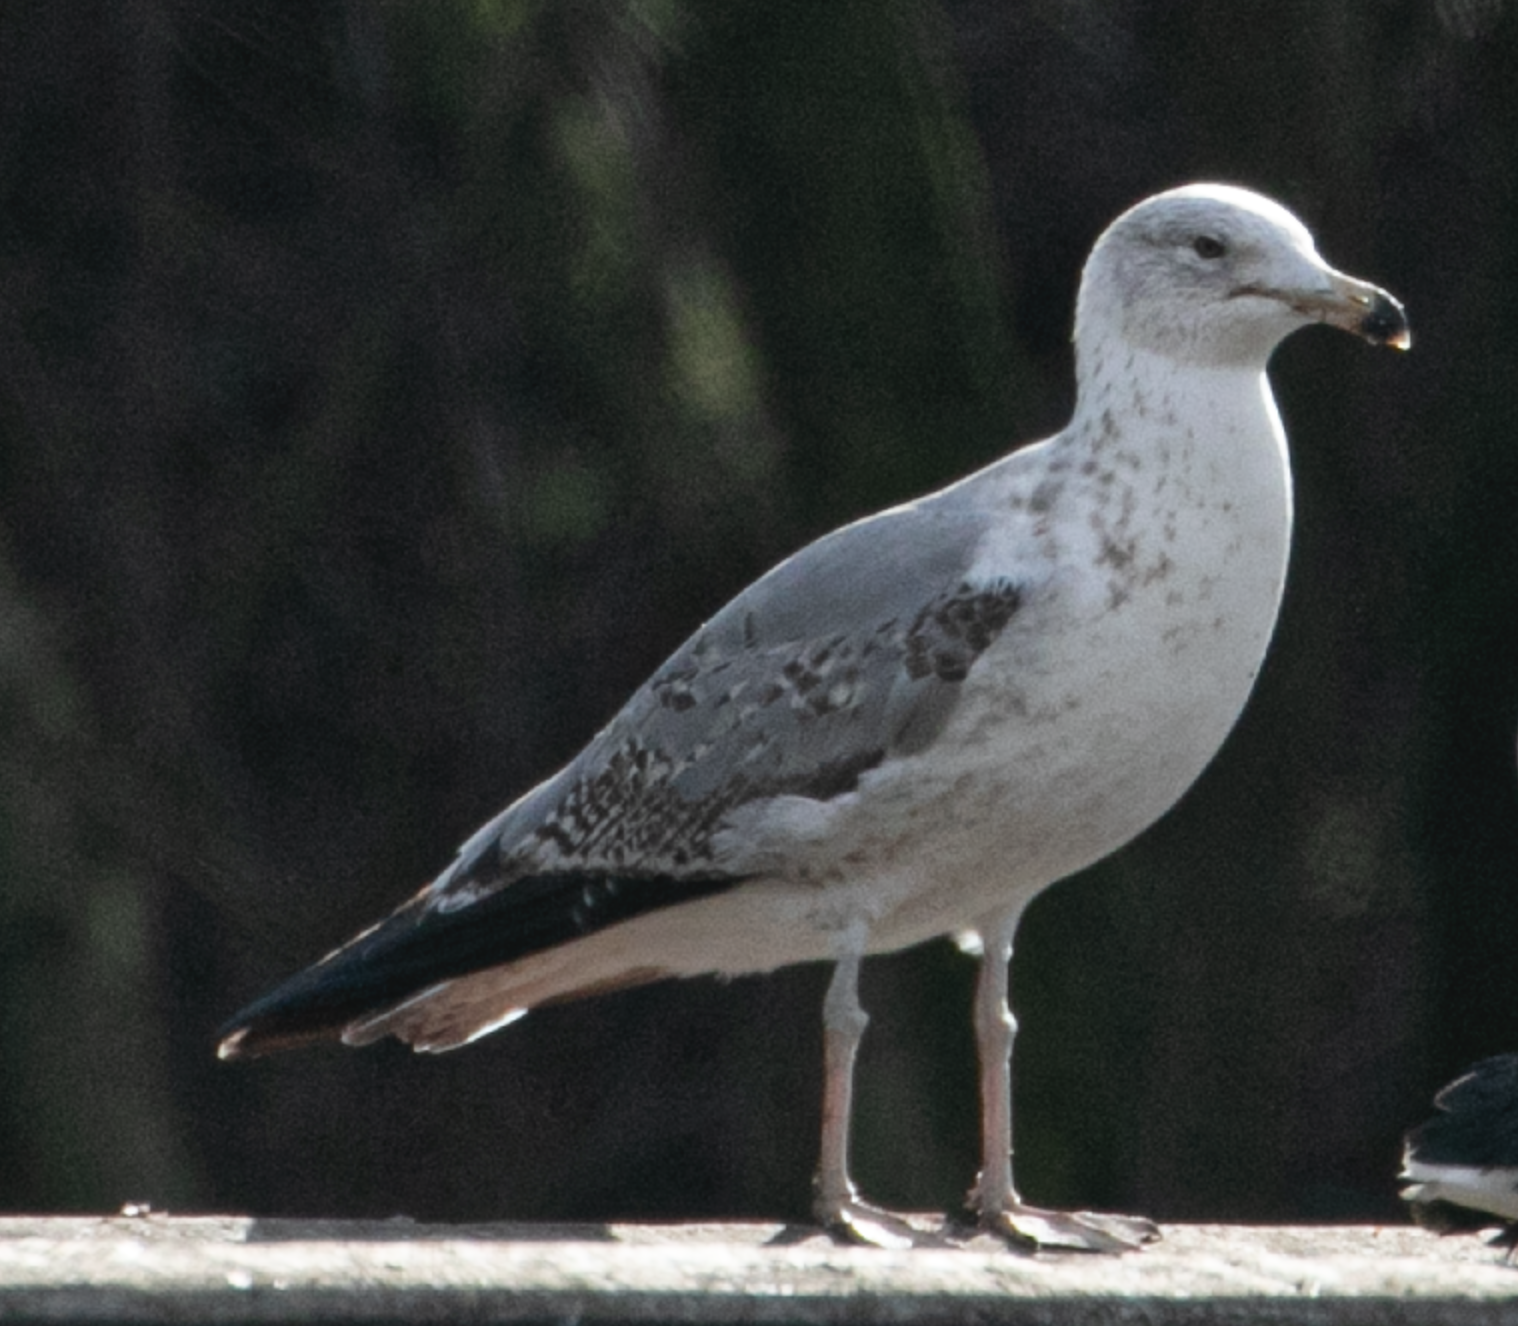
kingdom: Animalia
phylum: Chordata
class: Aves
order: Charadriiformes
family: Laridae
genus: Larus
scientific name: Larus michahellis
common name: Yellow-legged gull
